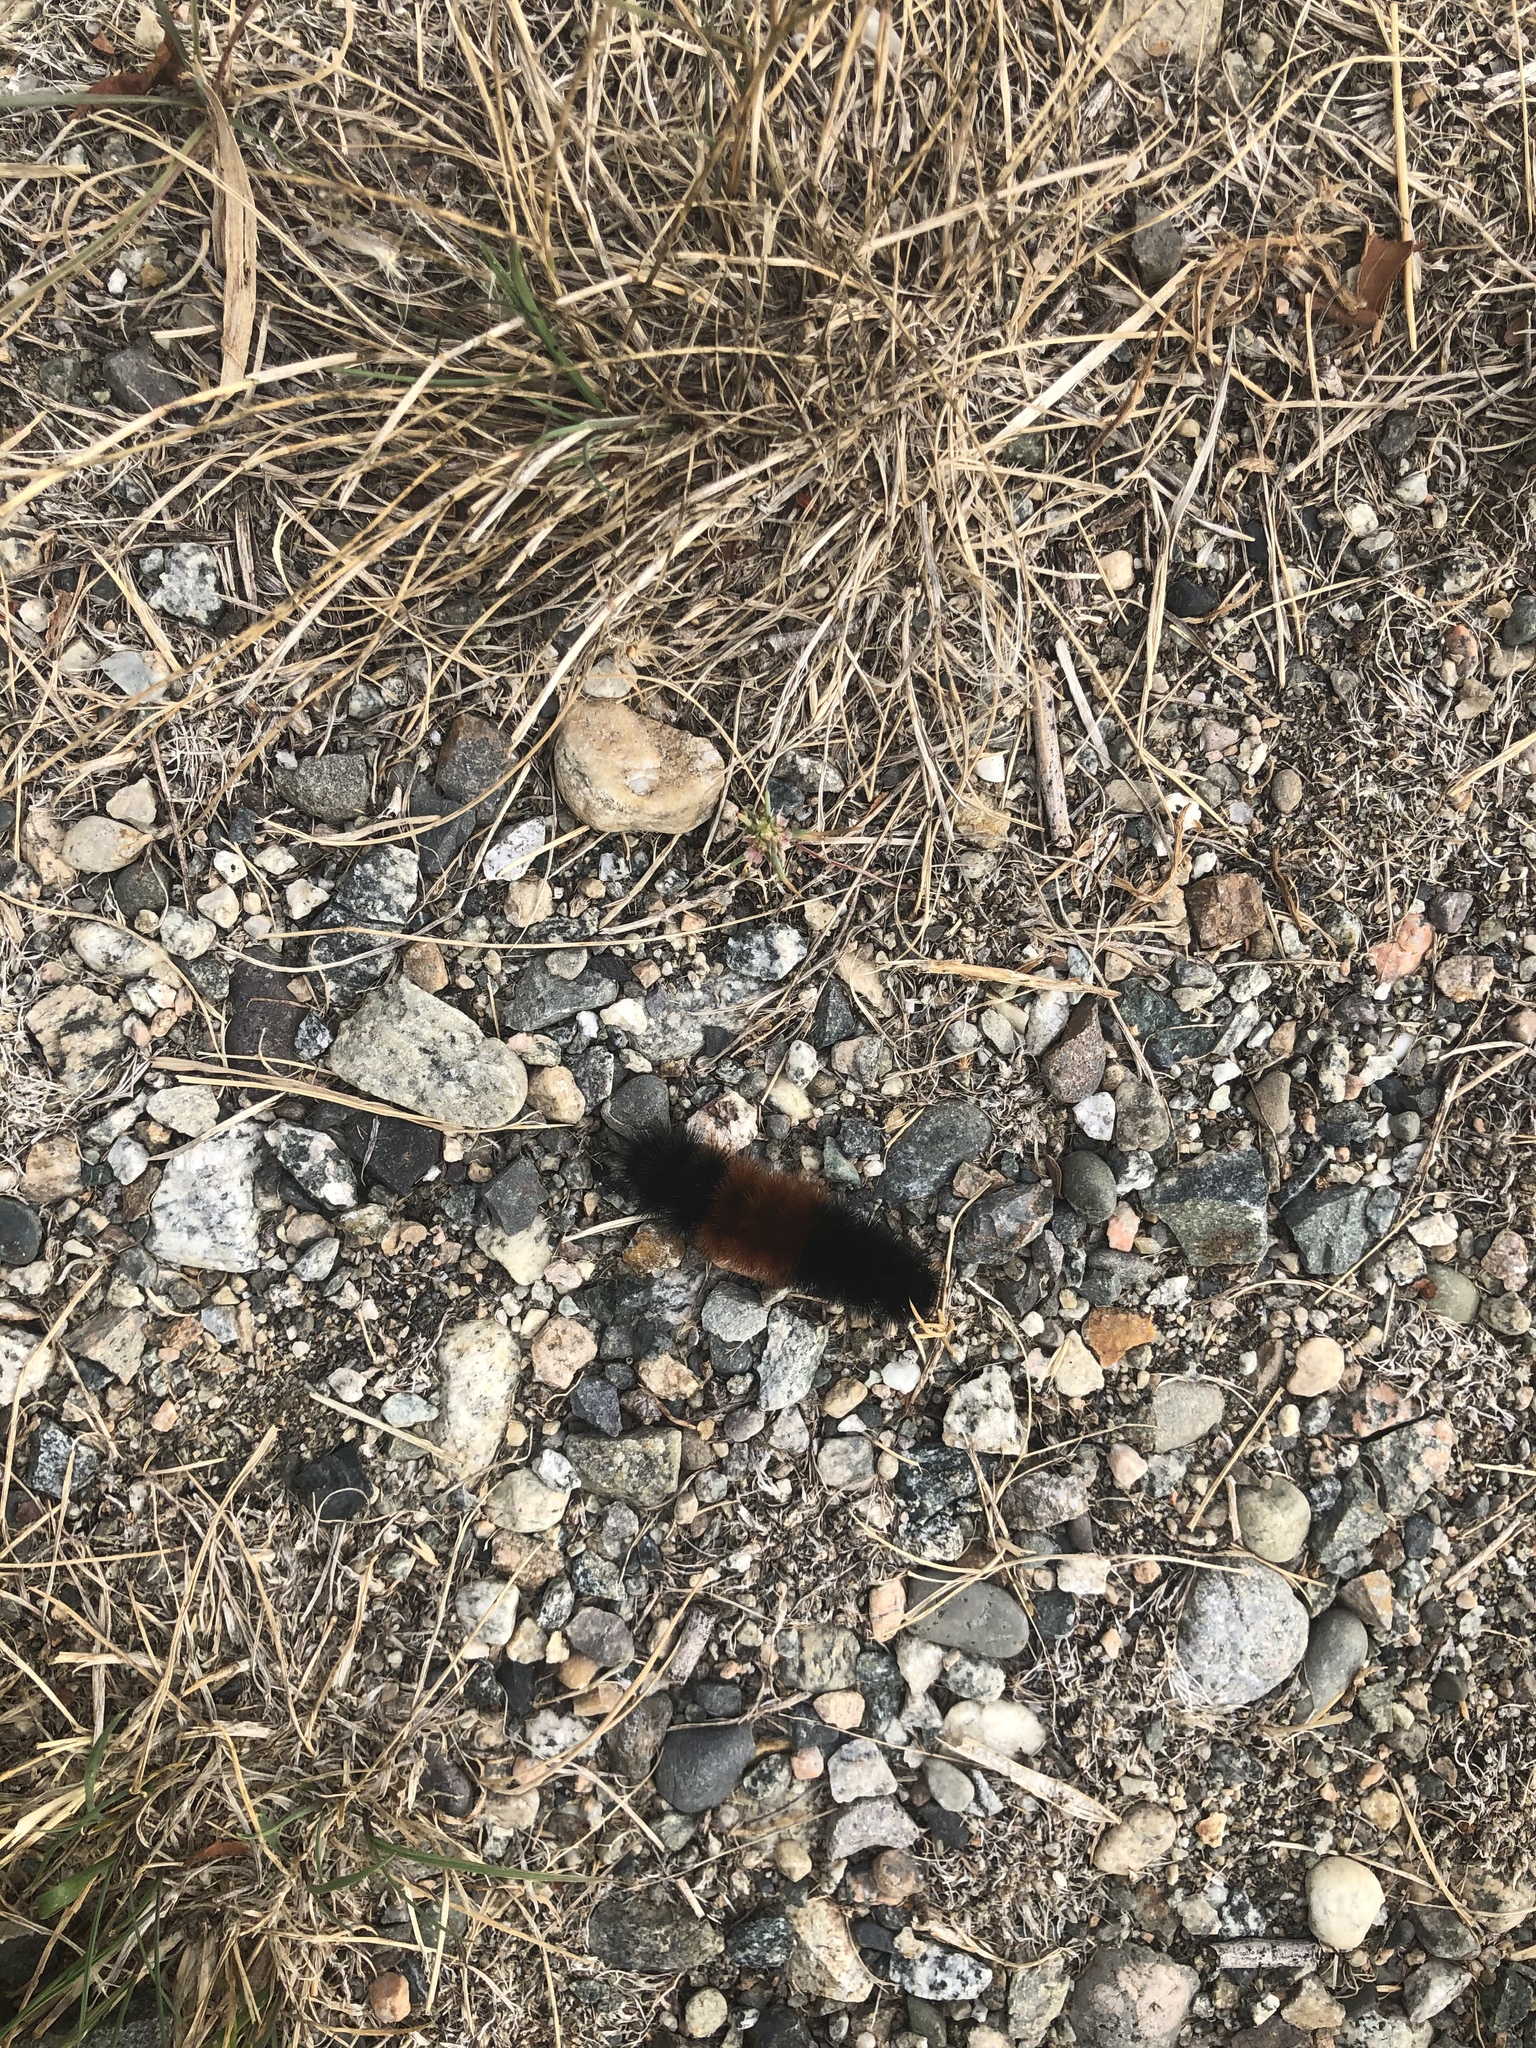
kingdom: Animalia
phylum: Arthropoda
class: Insecta
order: Lepidoptera
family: Erebidae
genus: Pyrrharctia
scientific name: Pyrrharctia isabella
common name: Isabella tiger moth
